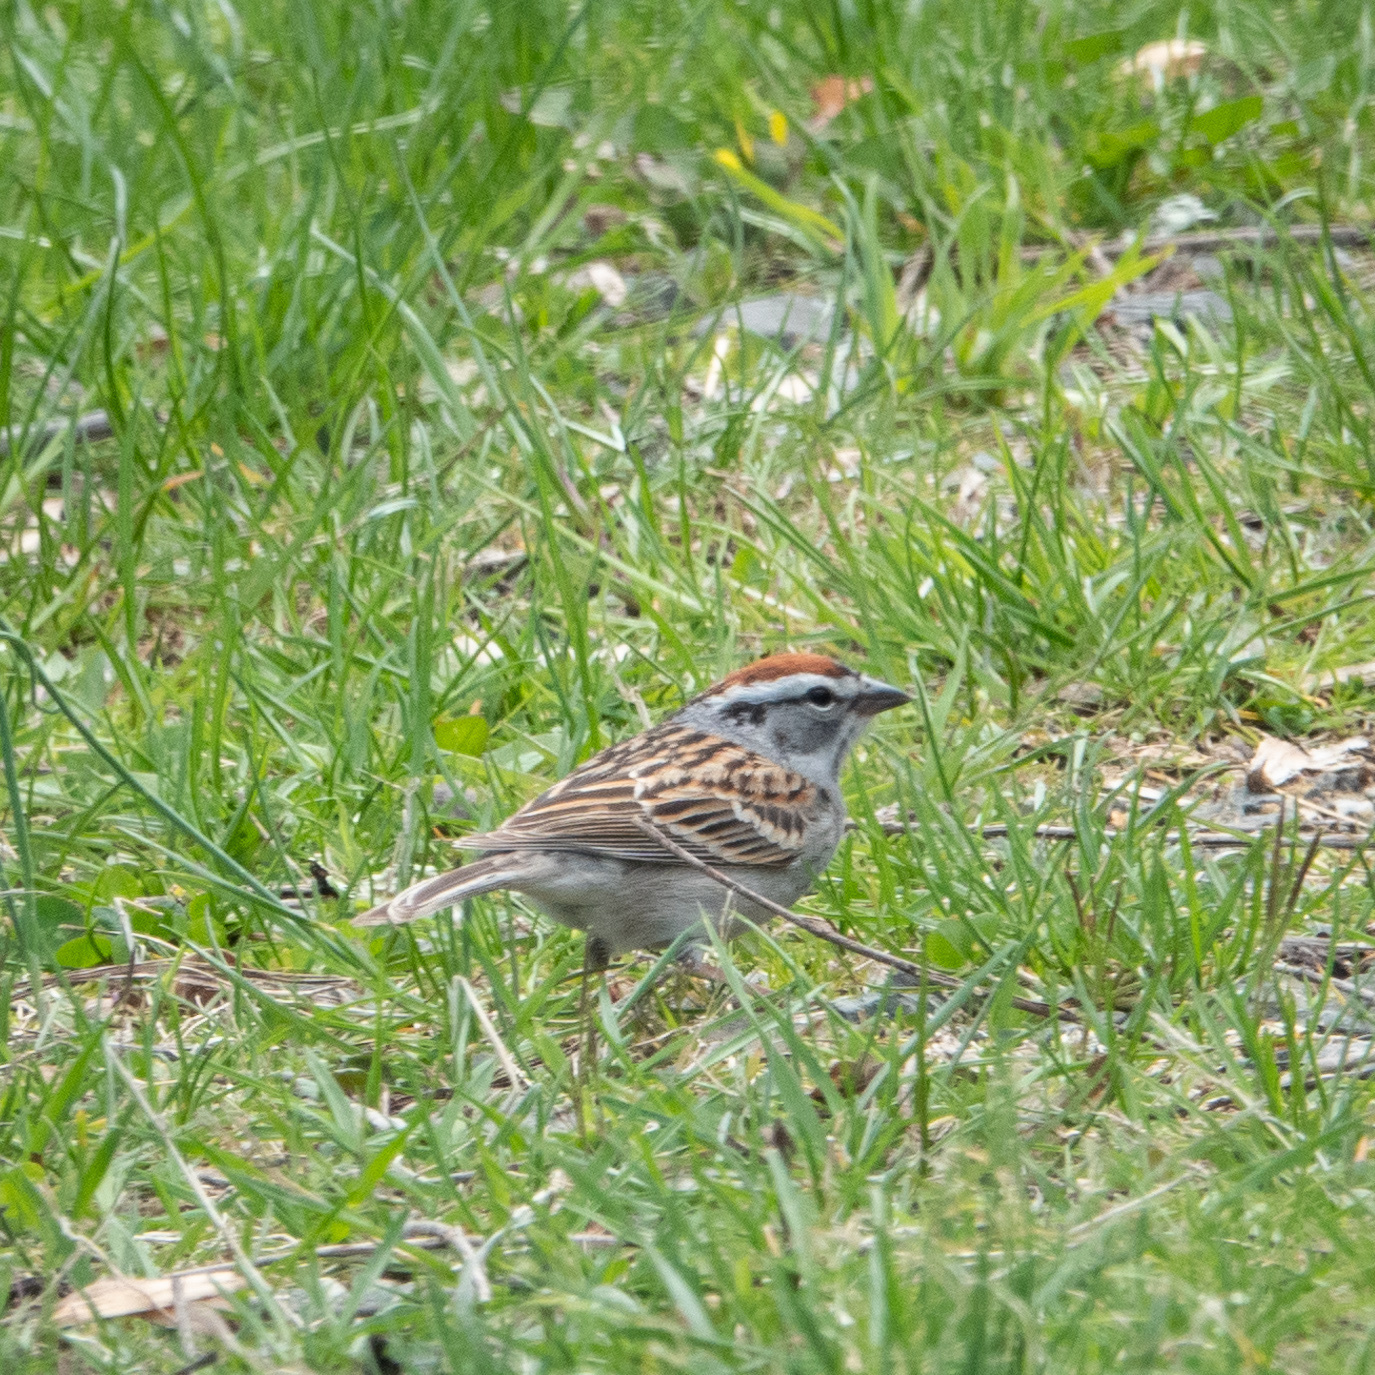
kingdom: Animalia
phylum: Chordata
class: Aves
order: Passeriformes
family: Passerellidae
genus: Spizella
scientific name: Spizella passerina
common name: Chipping sparrow
